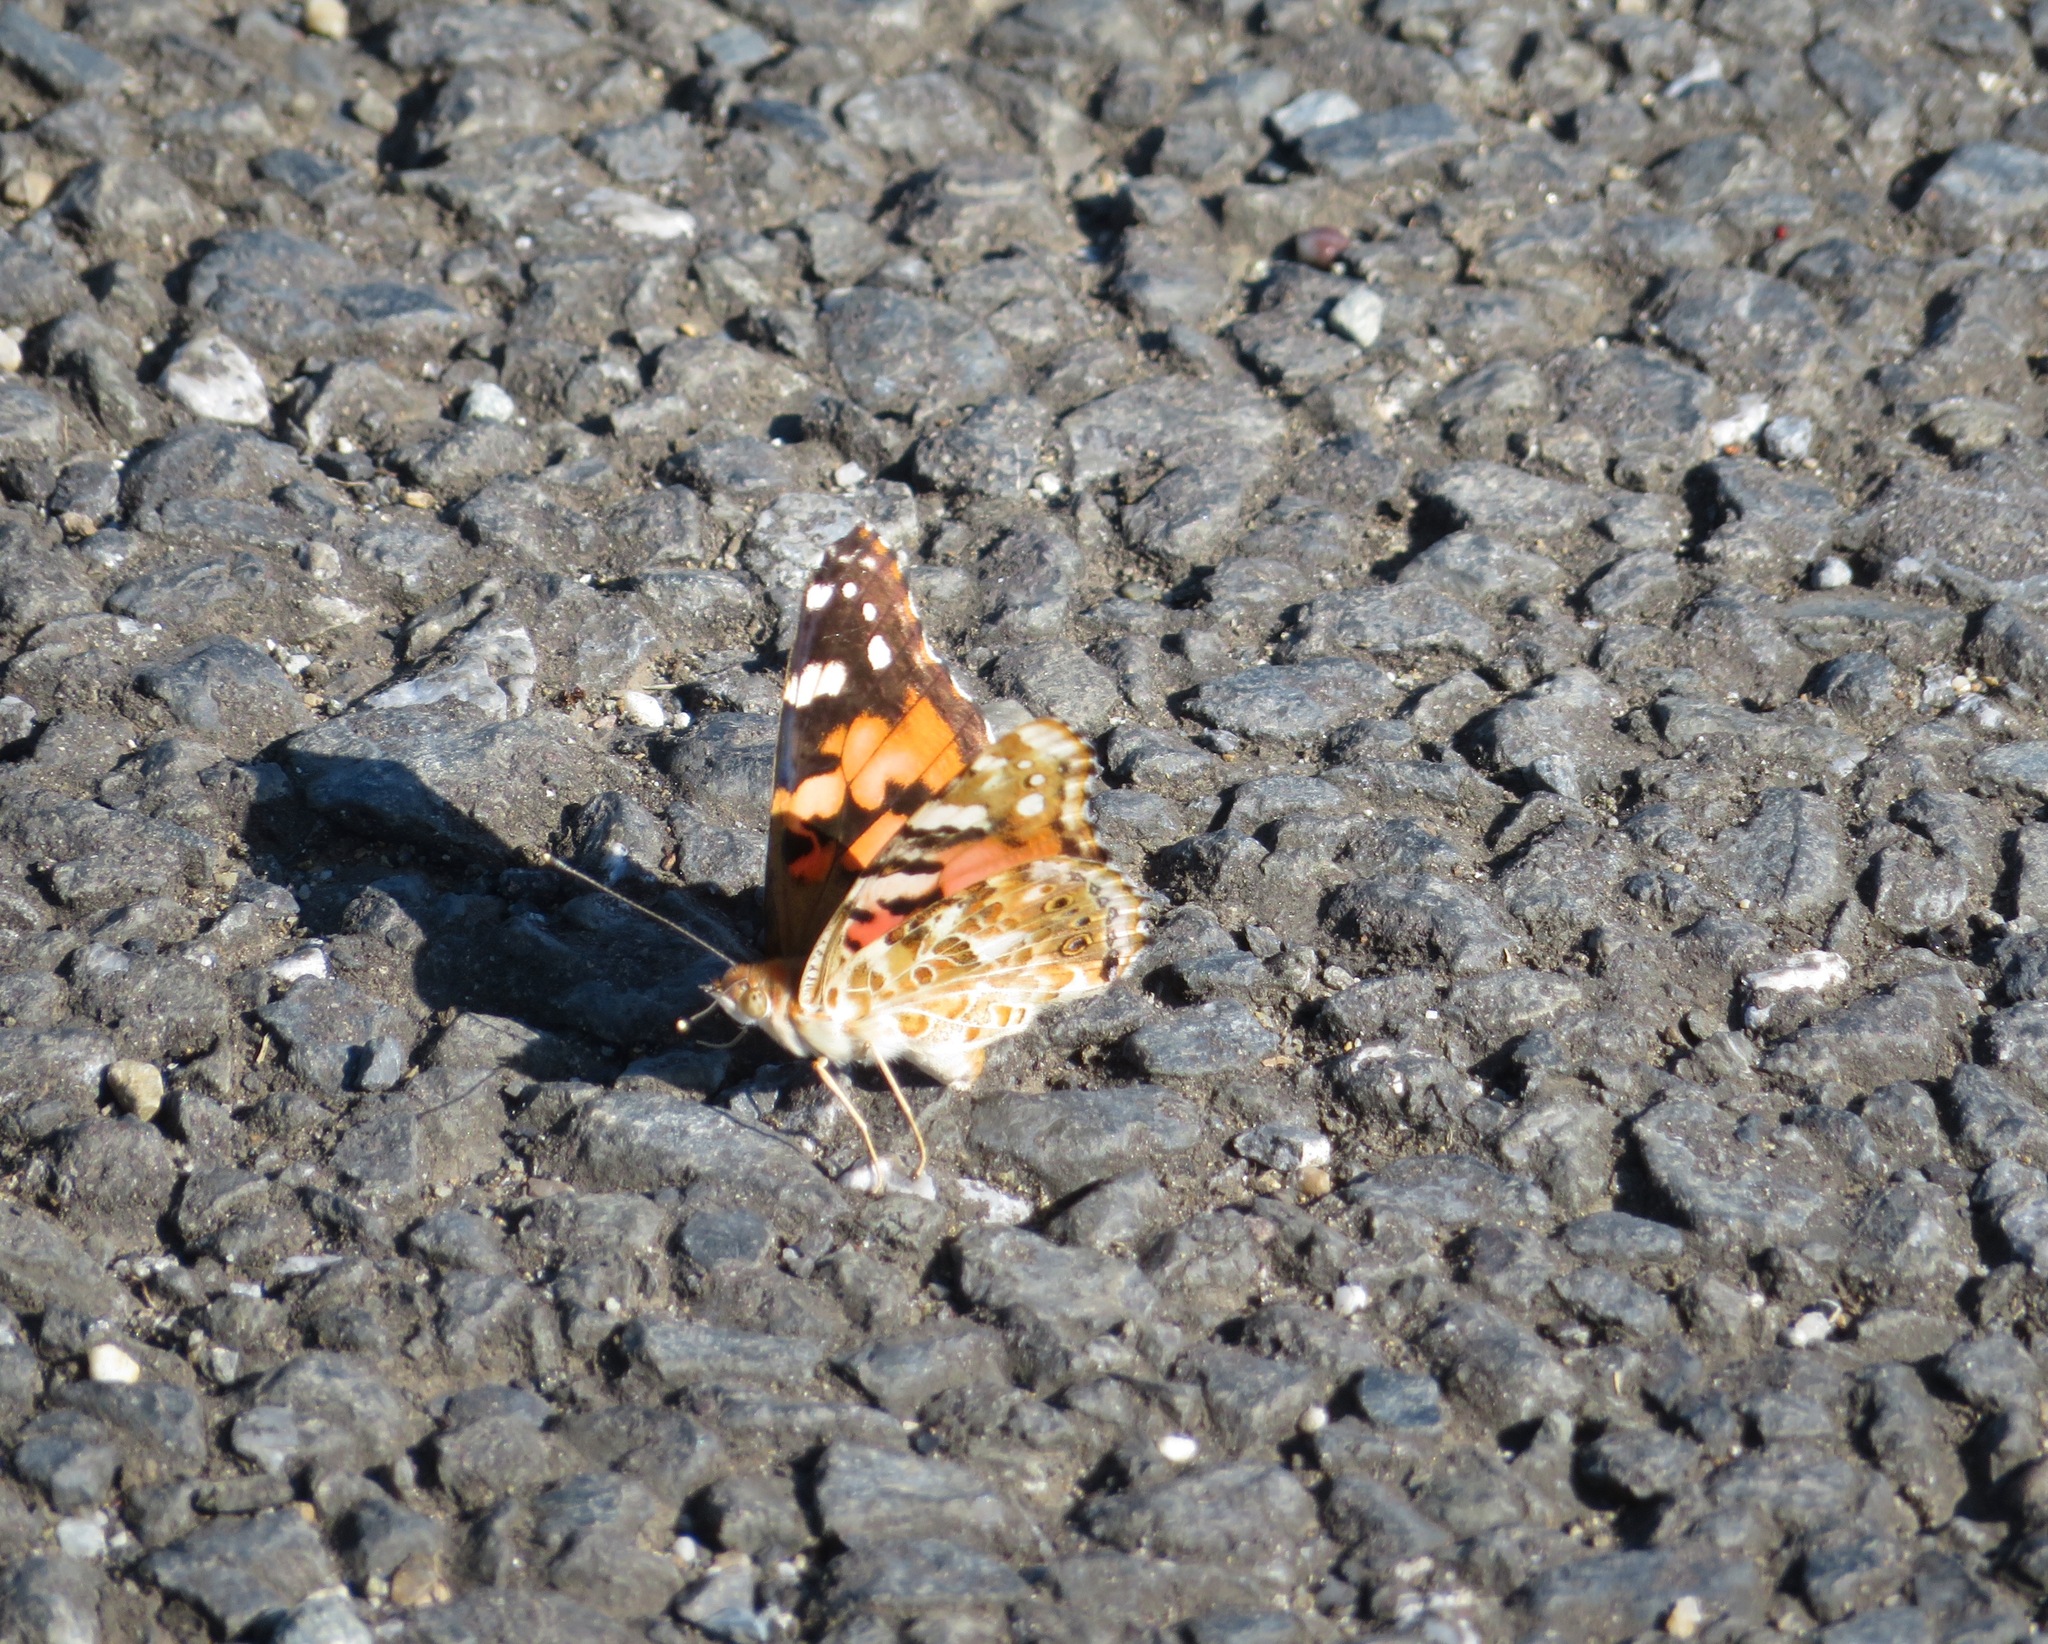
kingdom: Animalia
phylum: Arthropoda
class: Insecta
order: Lepidoptera
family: Nymphalidae
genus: Vanessa
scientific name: Vanessa cardui
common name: Painted lady
